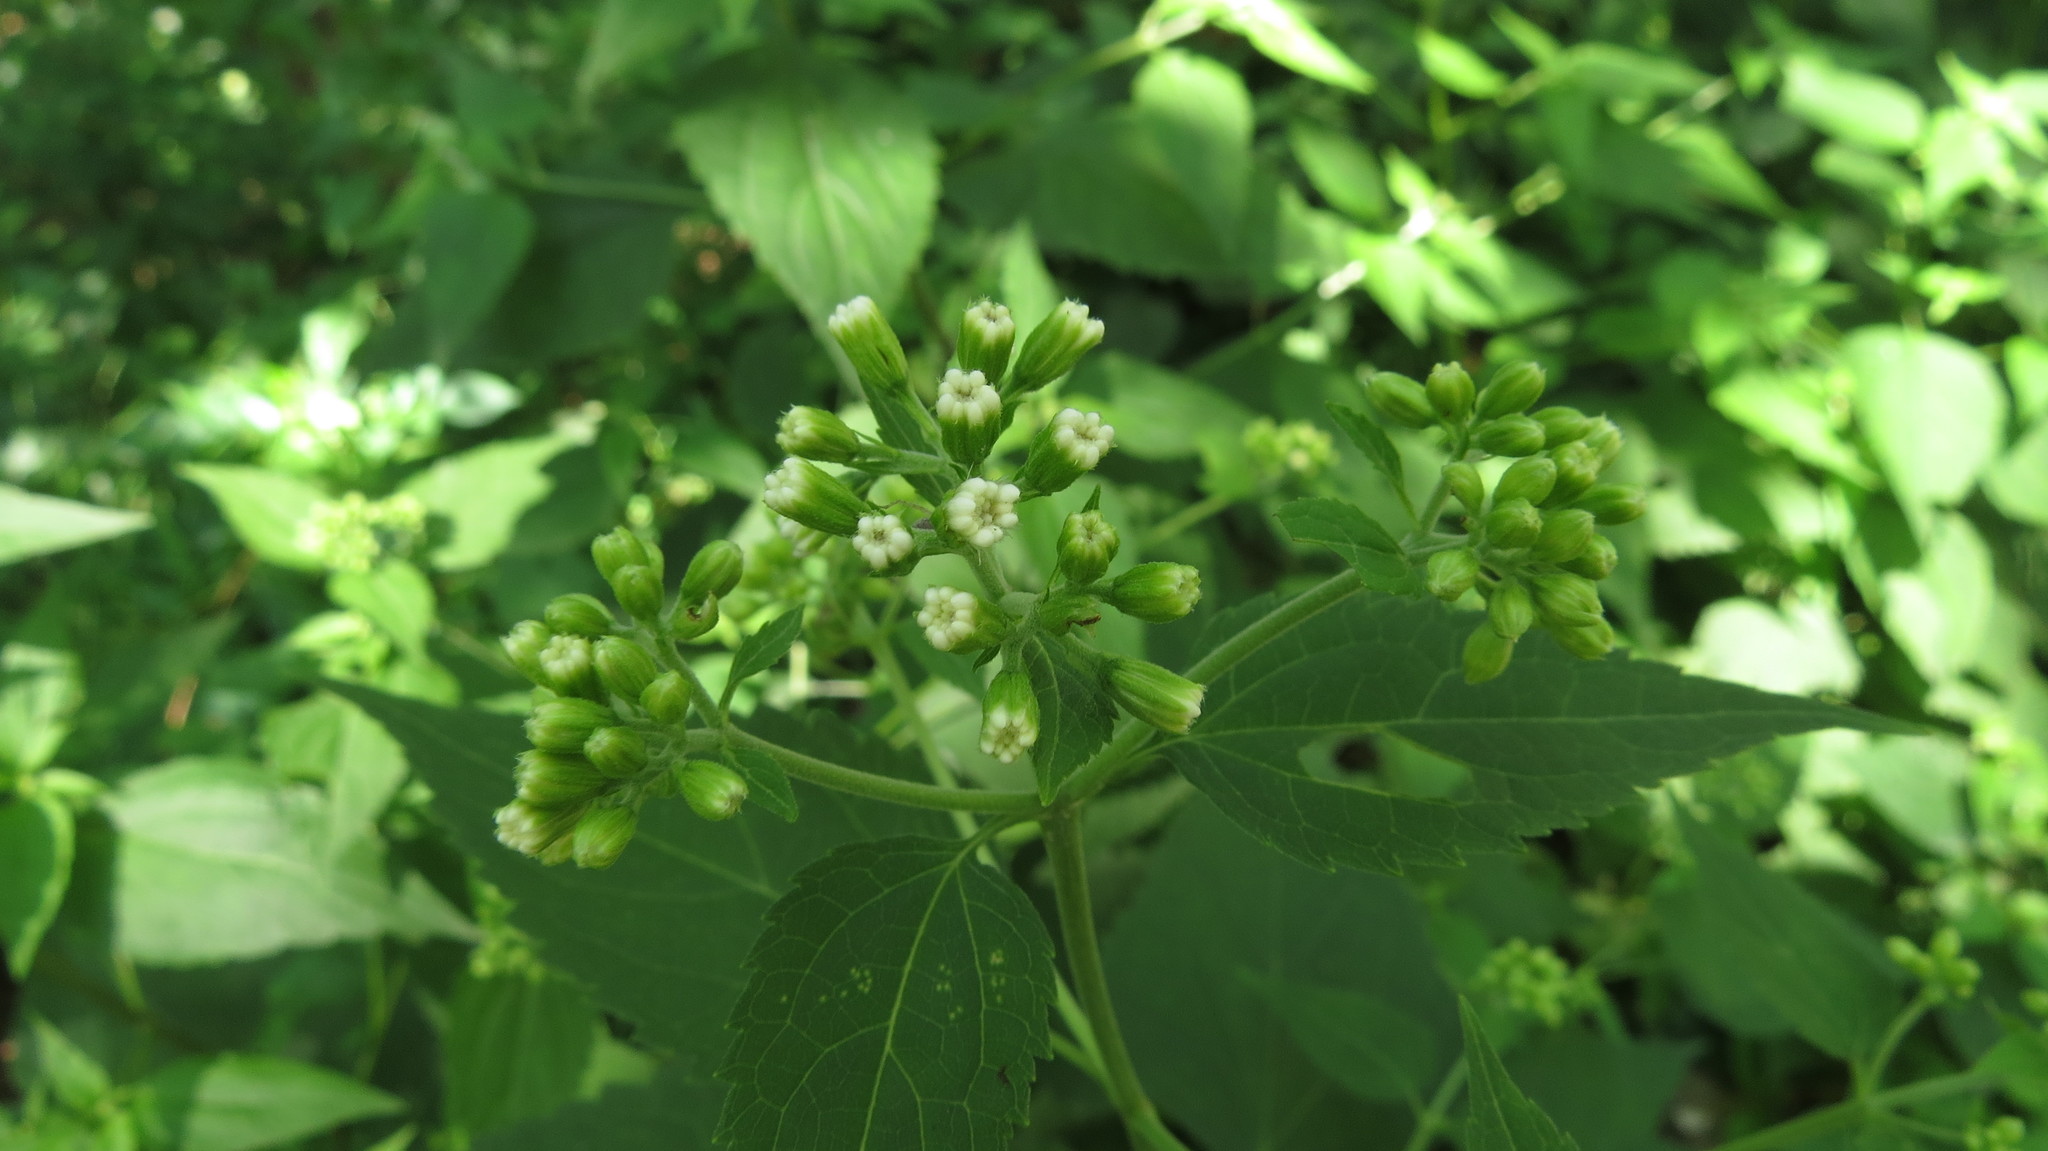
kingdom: Plantae
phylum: Tracheophyta
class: Magnoliopsida
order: Asterales
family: Asteraceae
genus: Ageratina
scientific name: Ageratina altissima
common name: White snakeroot
